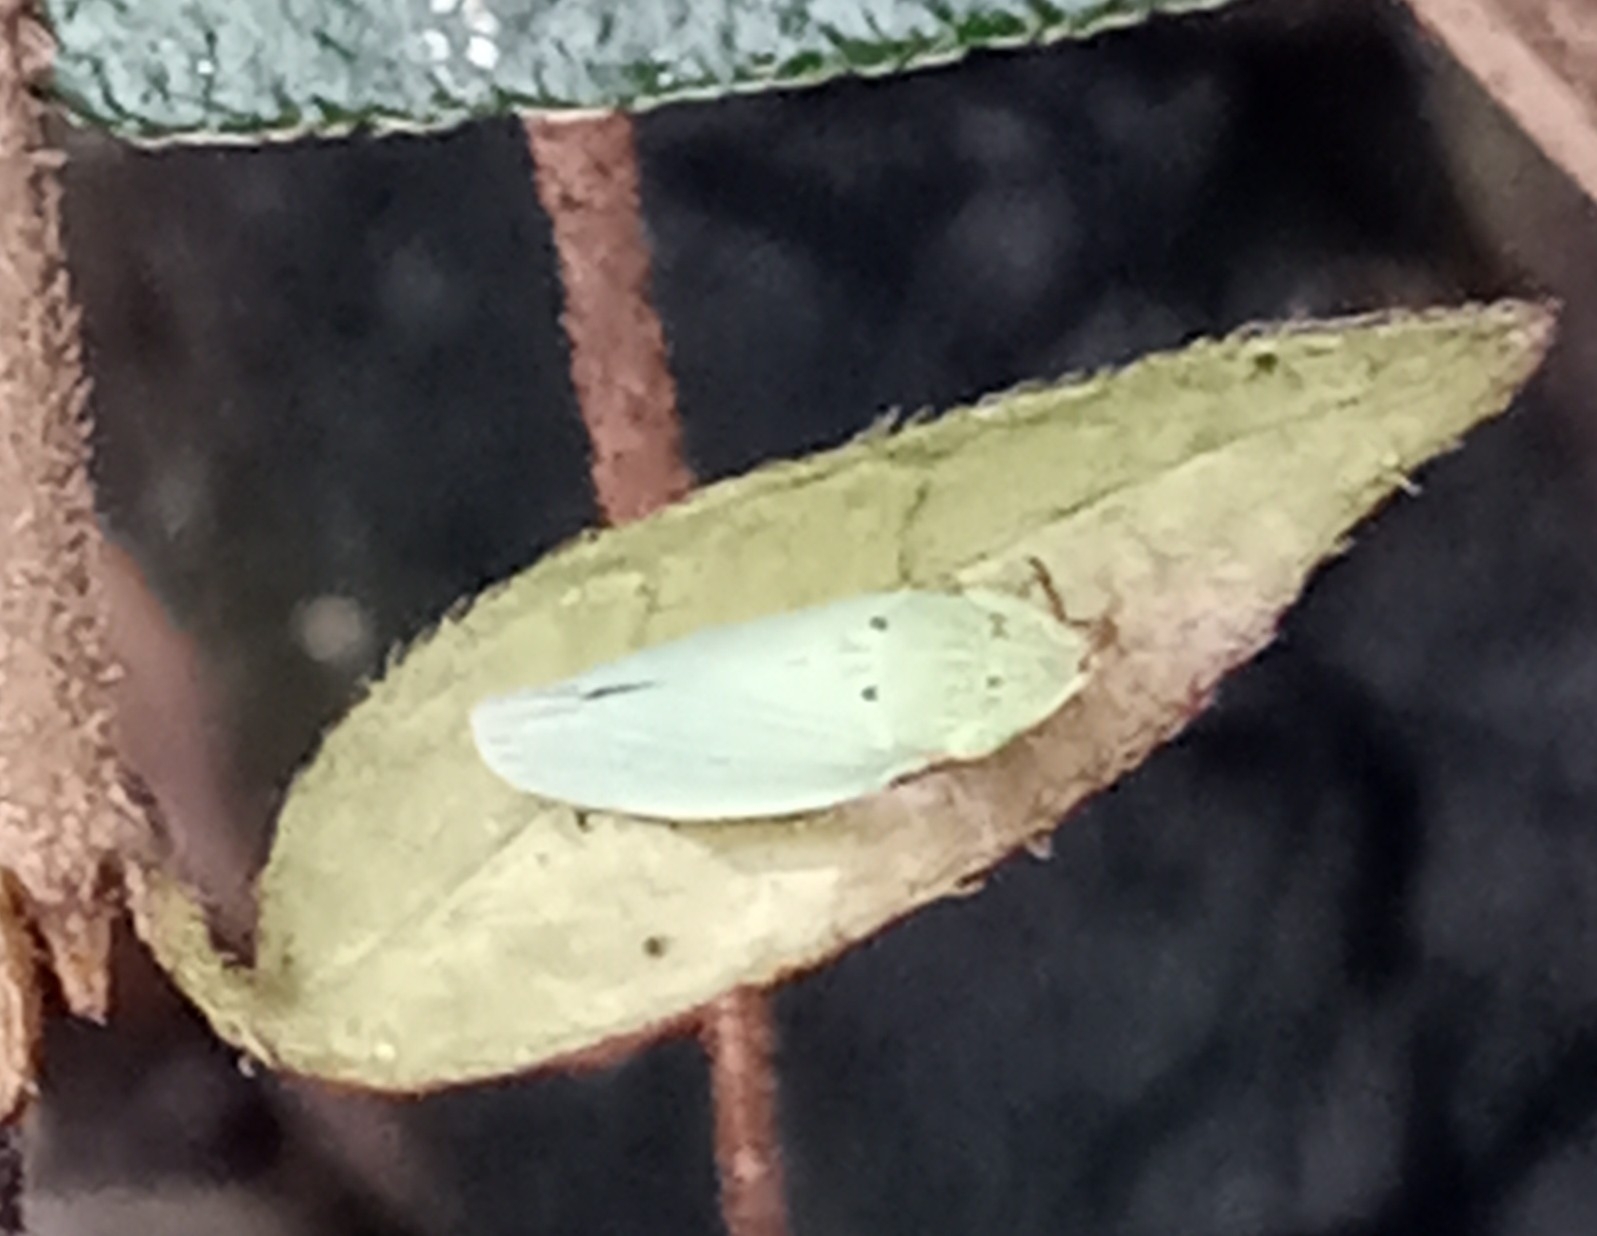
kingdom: Animalia
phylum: Arthropoda
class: Insecta
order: Hemiptera
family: Cicadellidae
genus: Draeculacephala
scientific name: Draeculacephala balli
